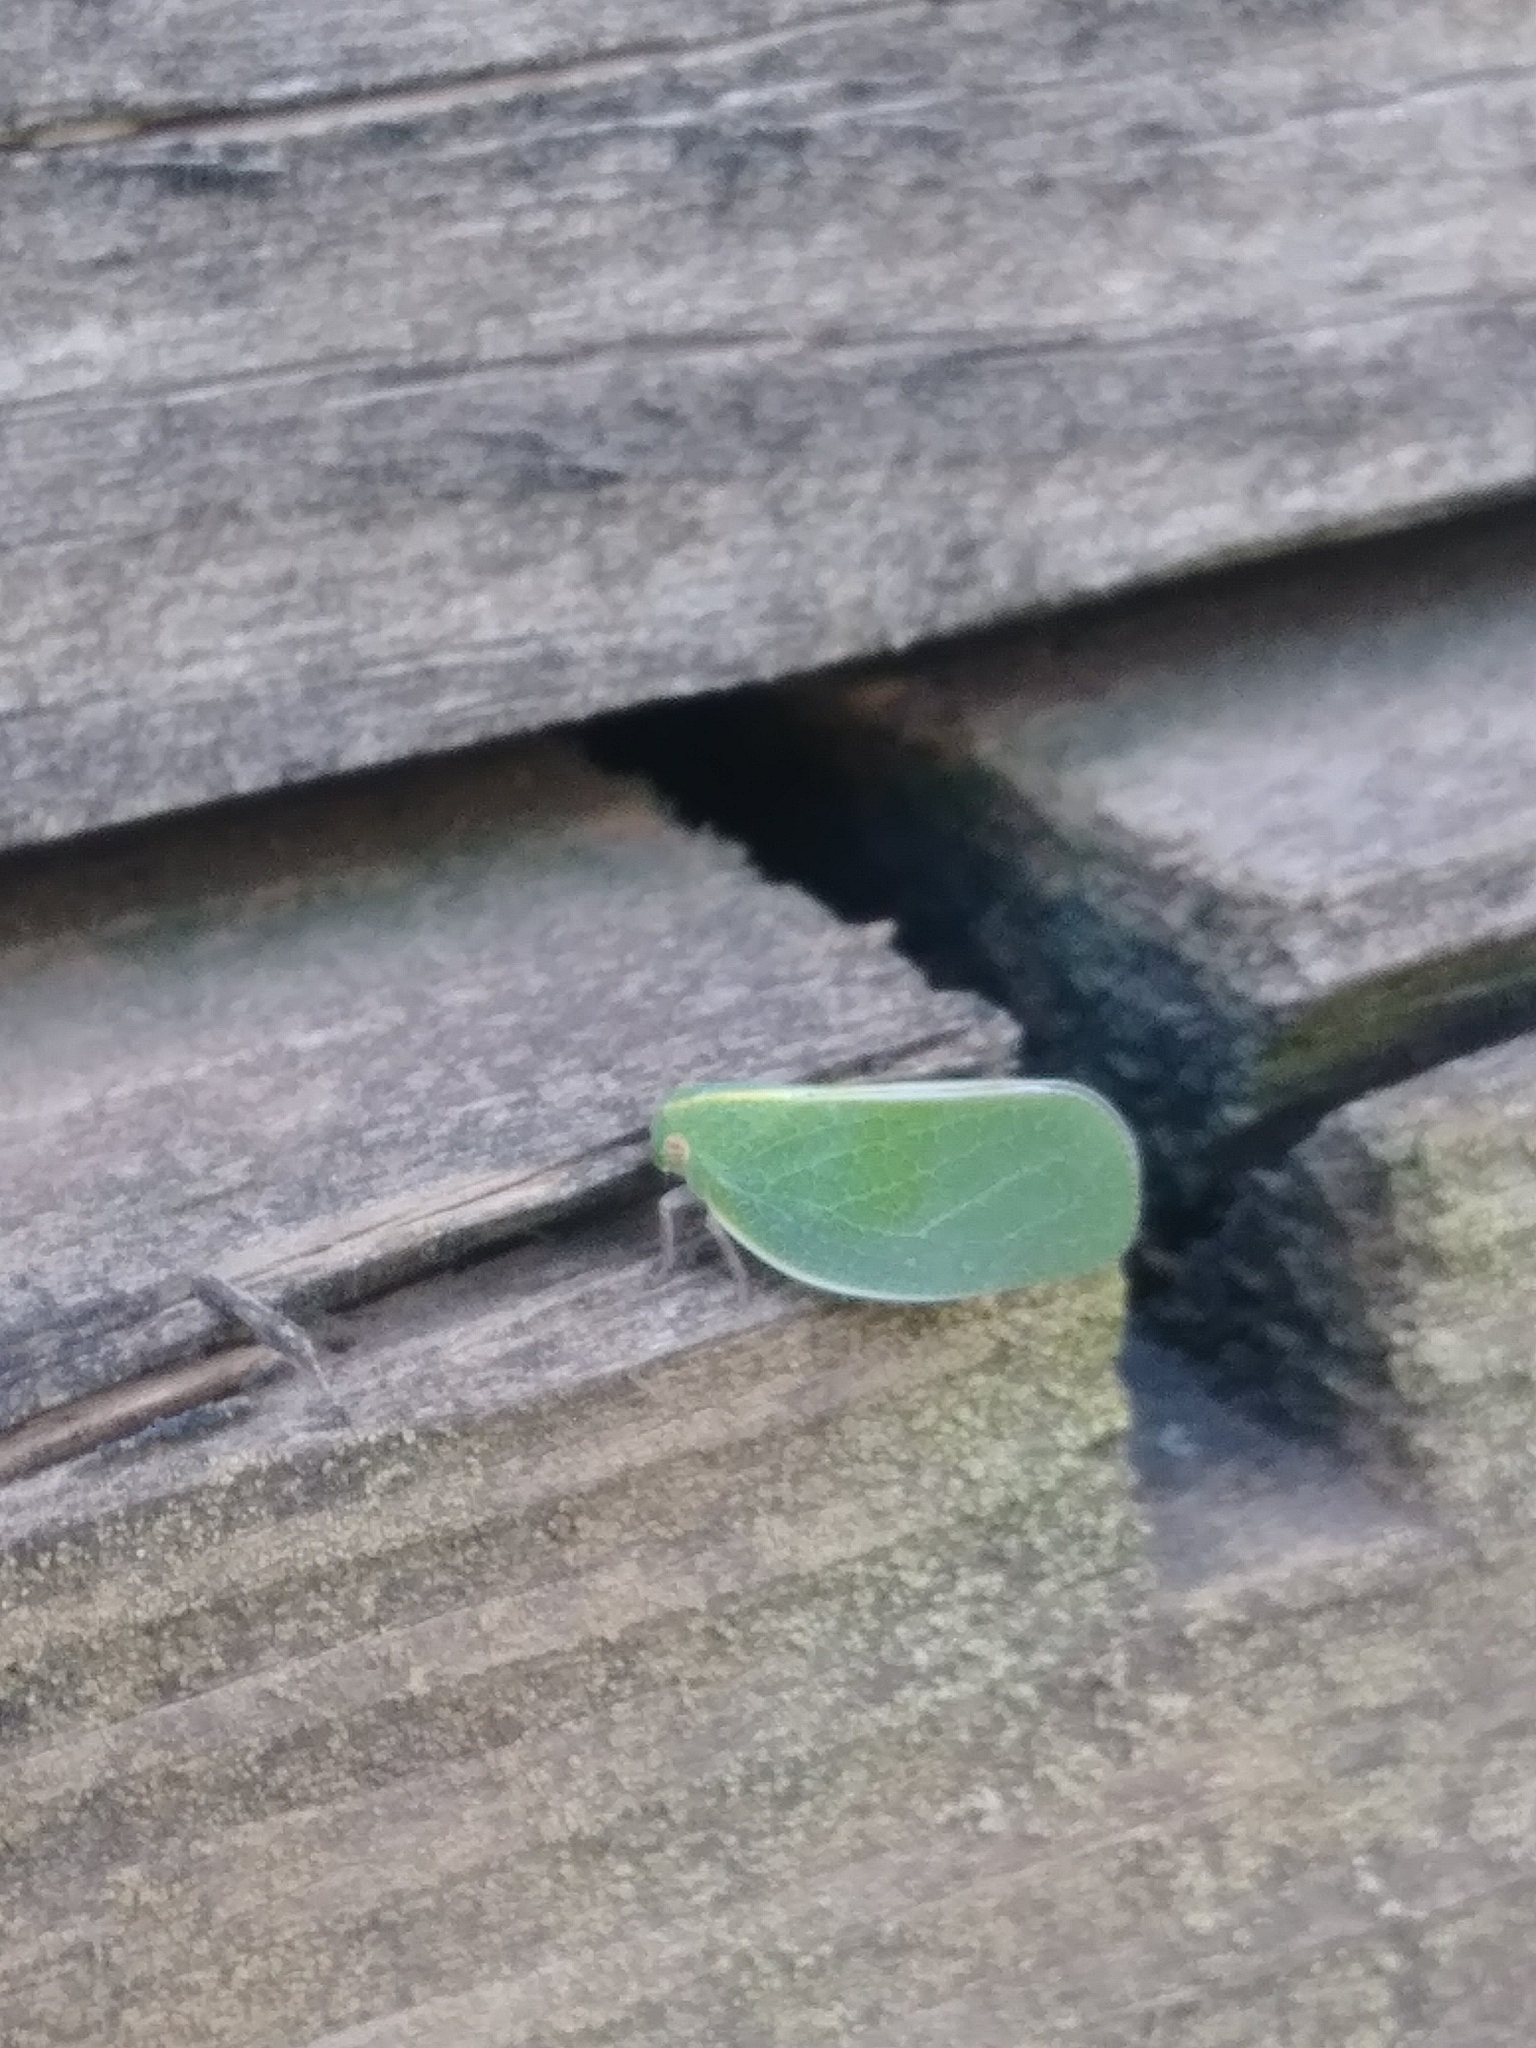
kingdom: Animalia
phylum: Arthropoda
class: Insecta
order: Hemiptera
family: Acanaloniidae
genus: Acanalonia
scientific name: Acanalonia servillei
